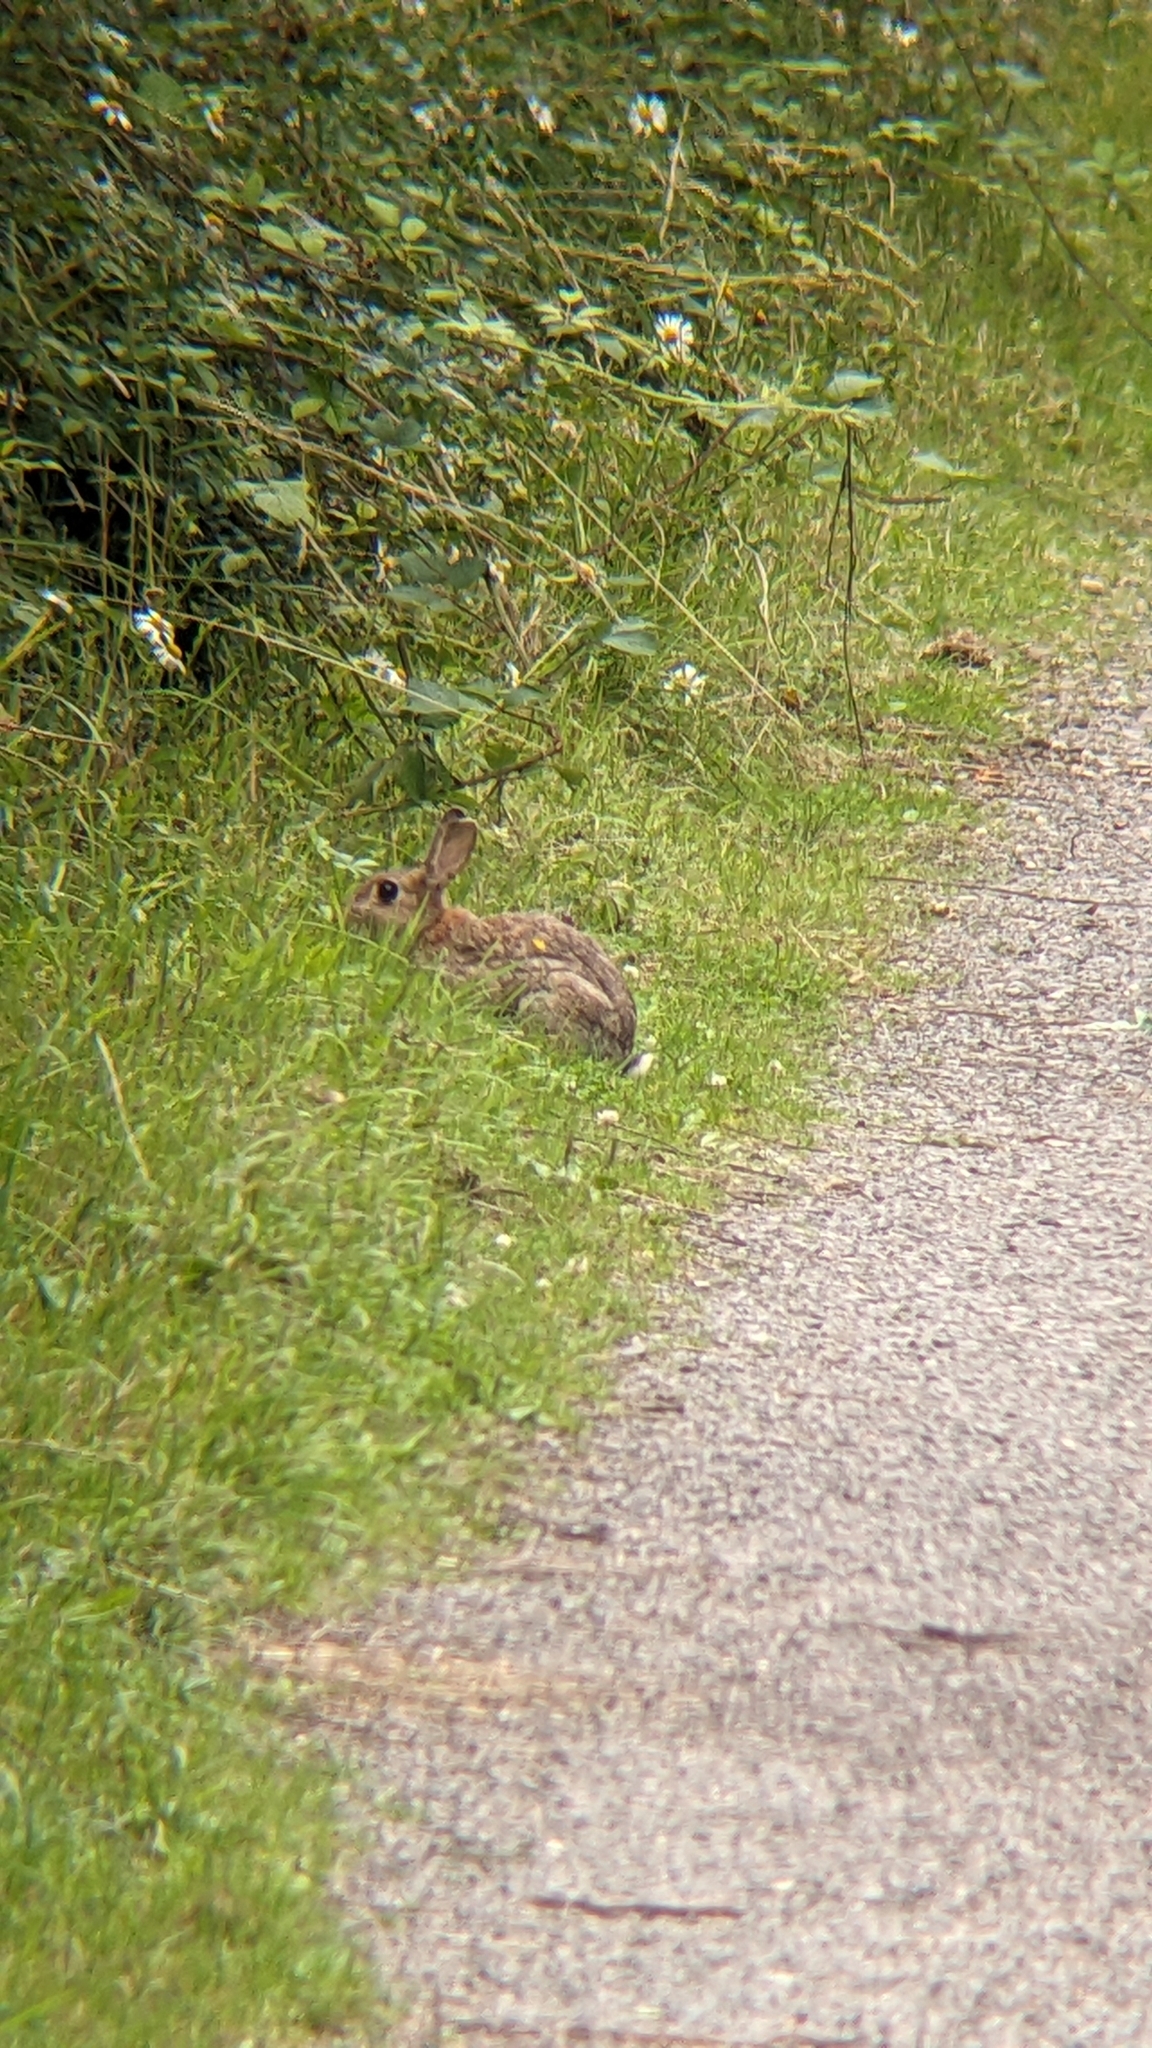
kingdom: Animalia
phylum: Chordata
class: Mammalia
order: Lagomorpha
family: Leporidae
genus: Oryctolagus
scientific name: Oryctolagus cuniculus
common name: European rabbit
